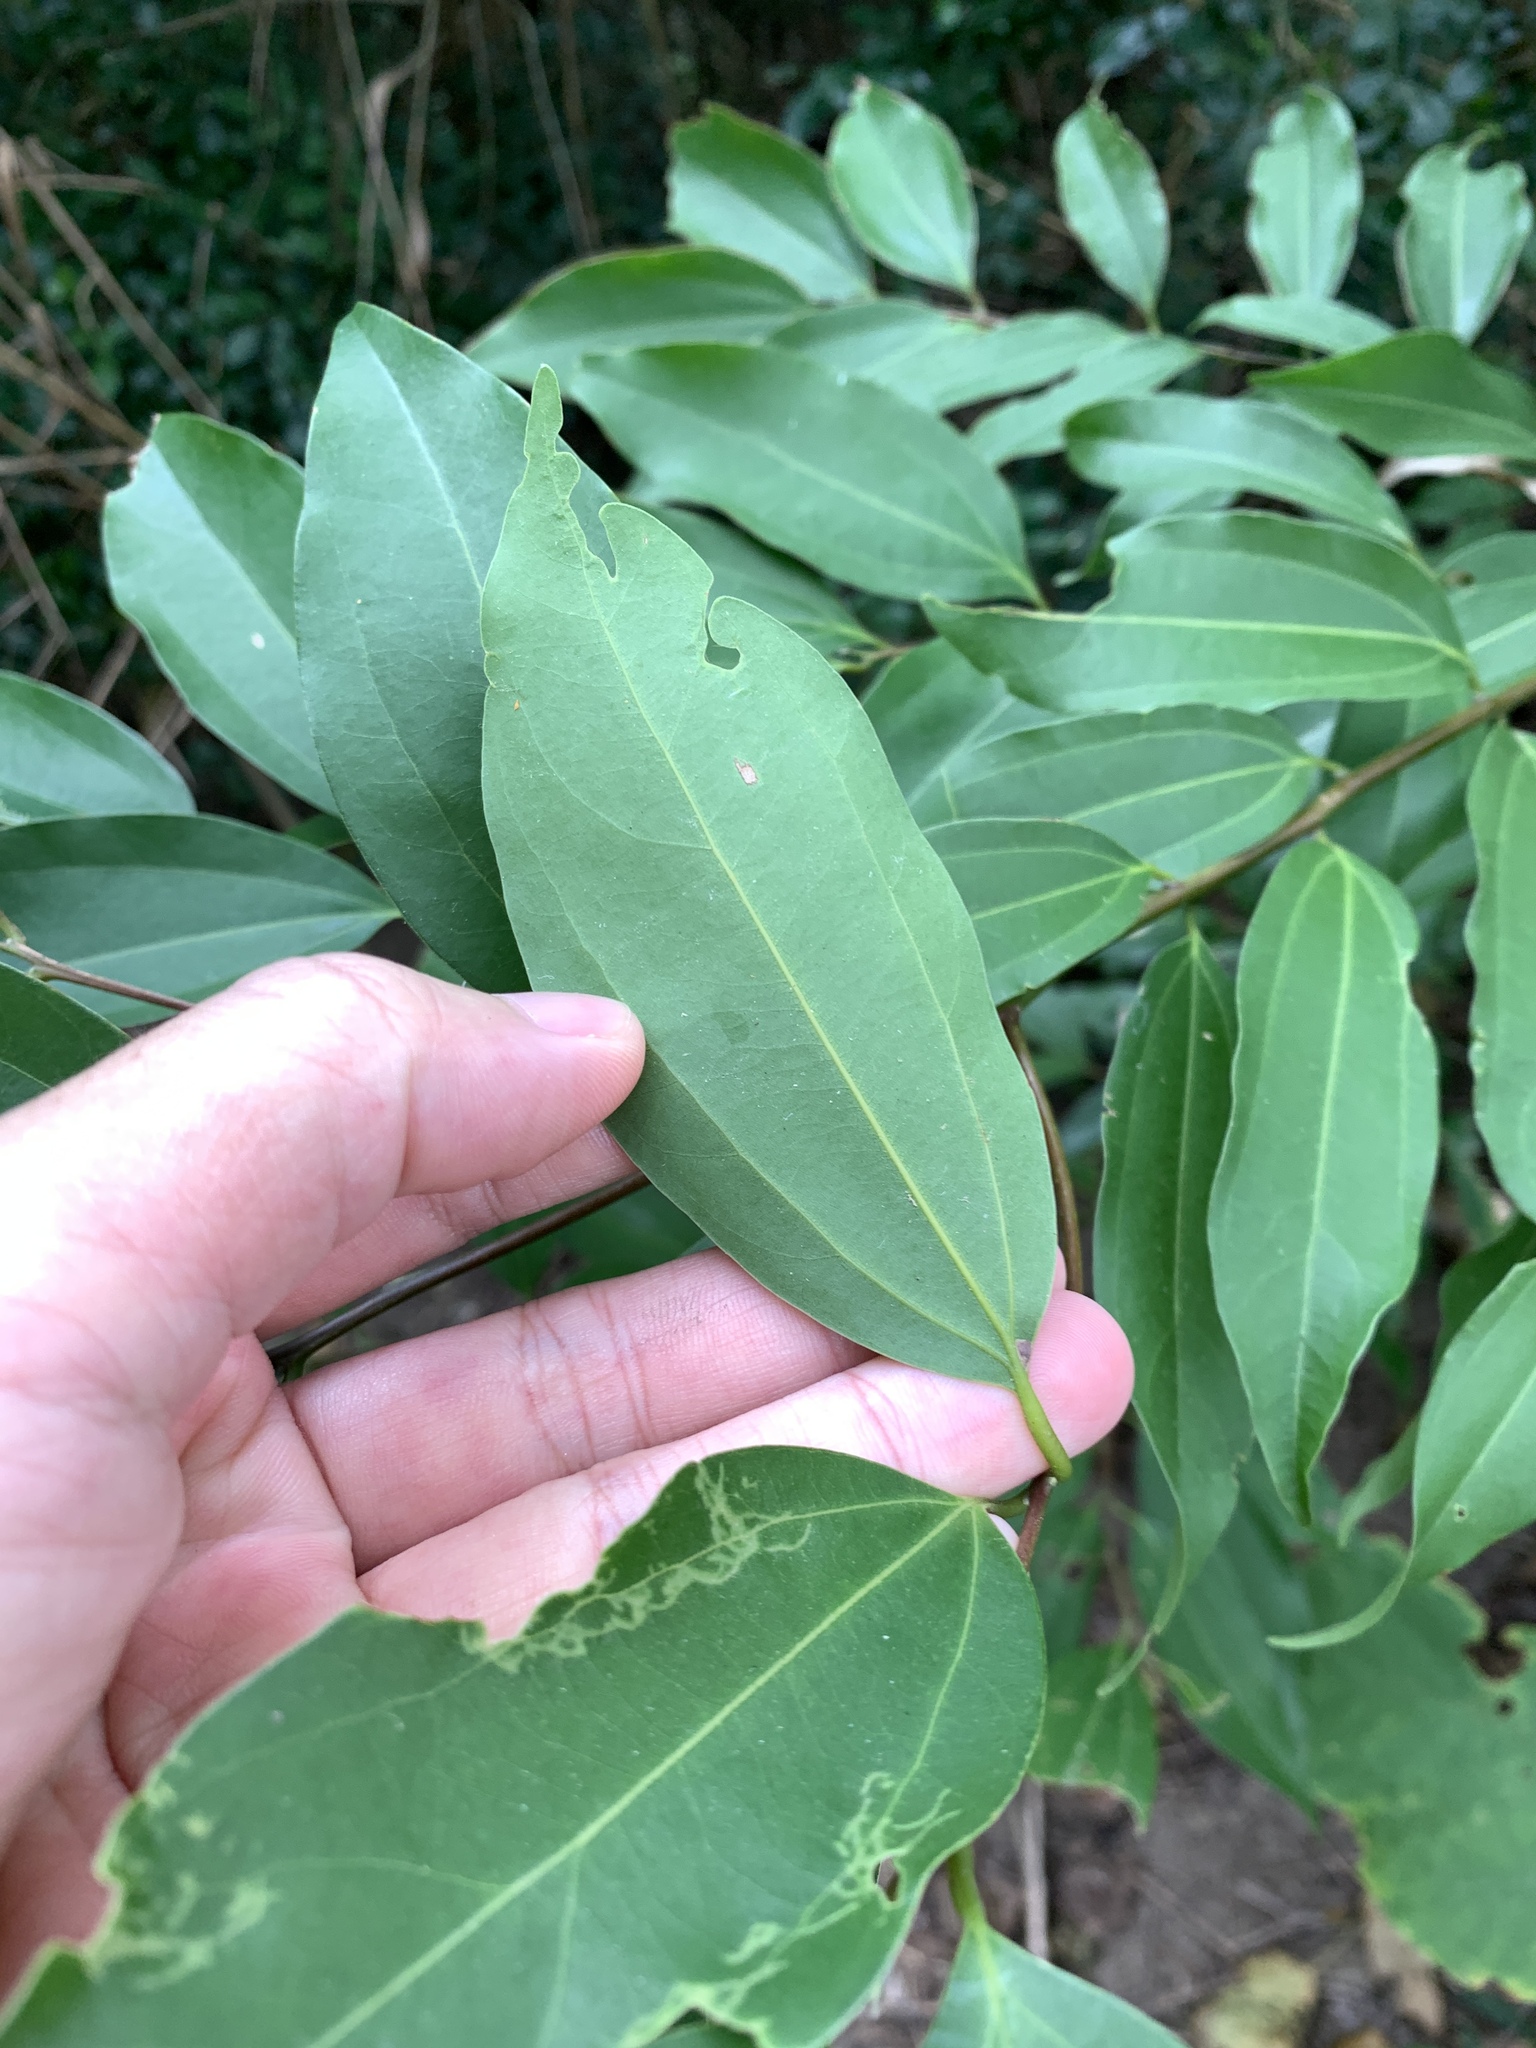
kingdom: Plantae
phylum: Tracheophyta
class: Magnoliopsida
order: Laurales
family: Lauraceae
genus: Cinnamomum
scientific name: Cinnamomum burmanni
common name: Padang cassia
